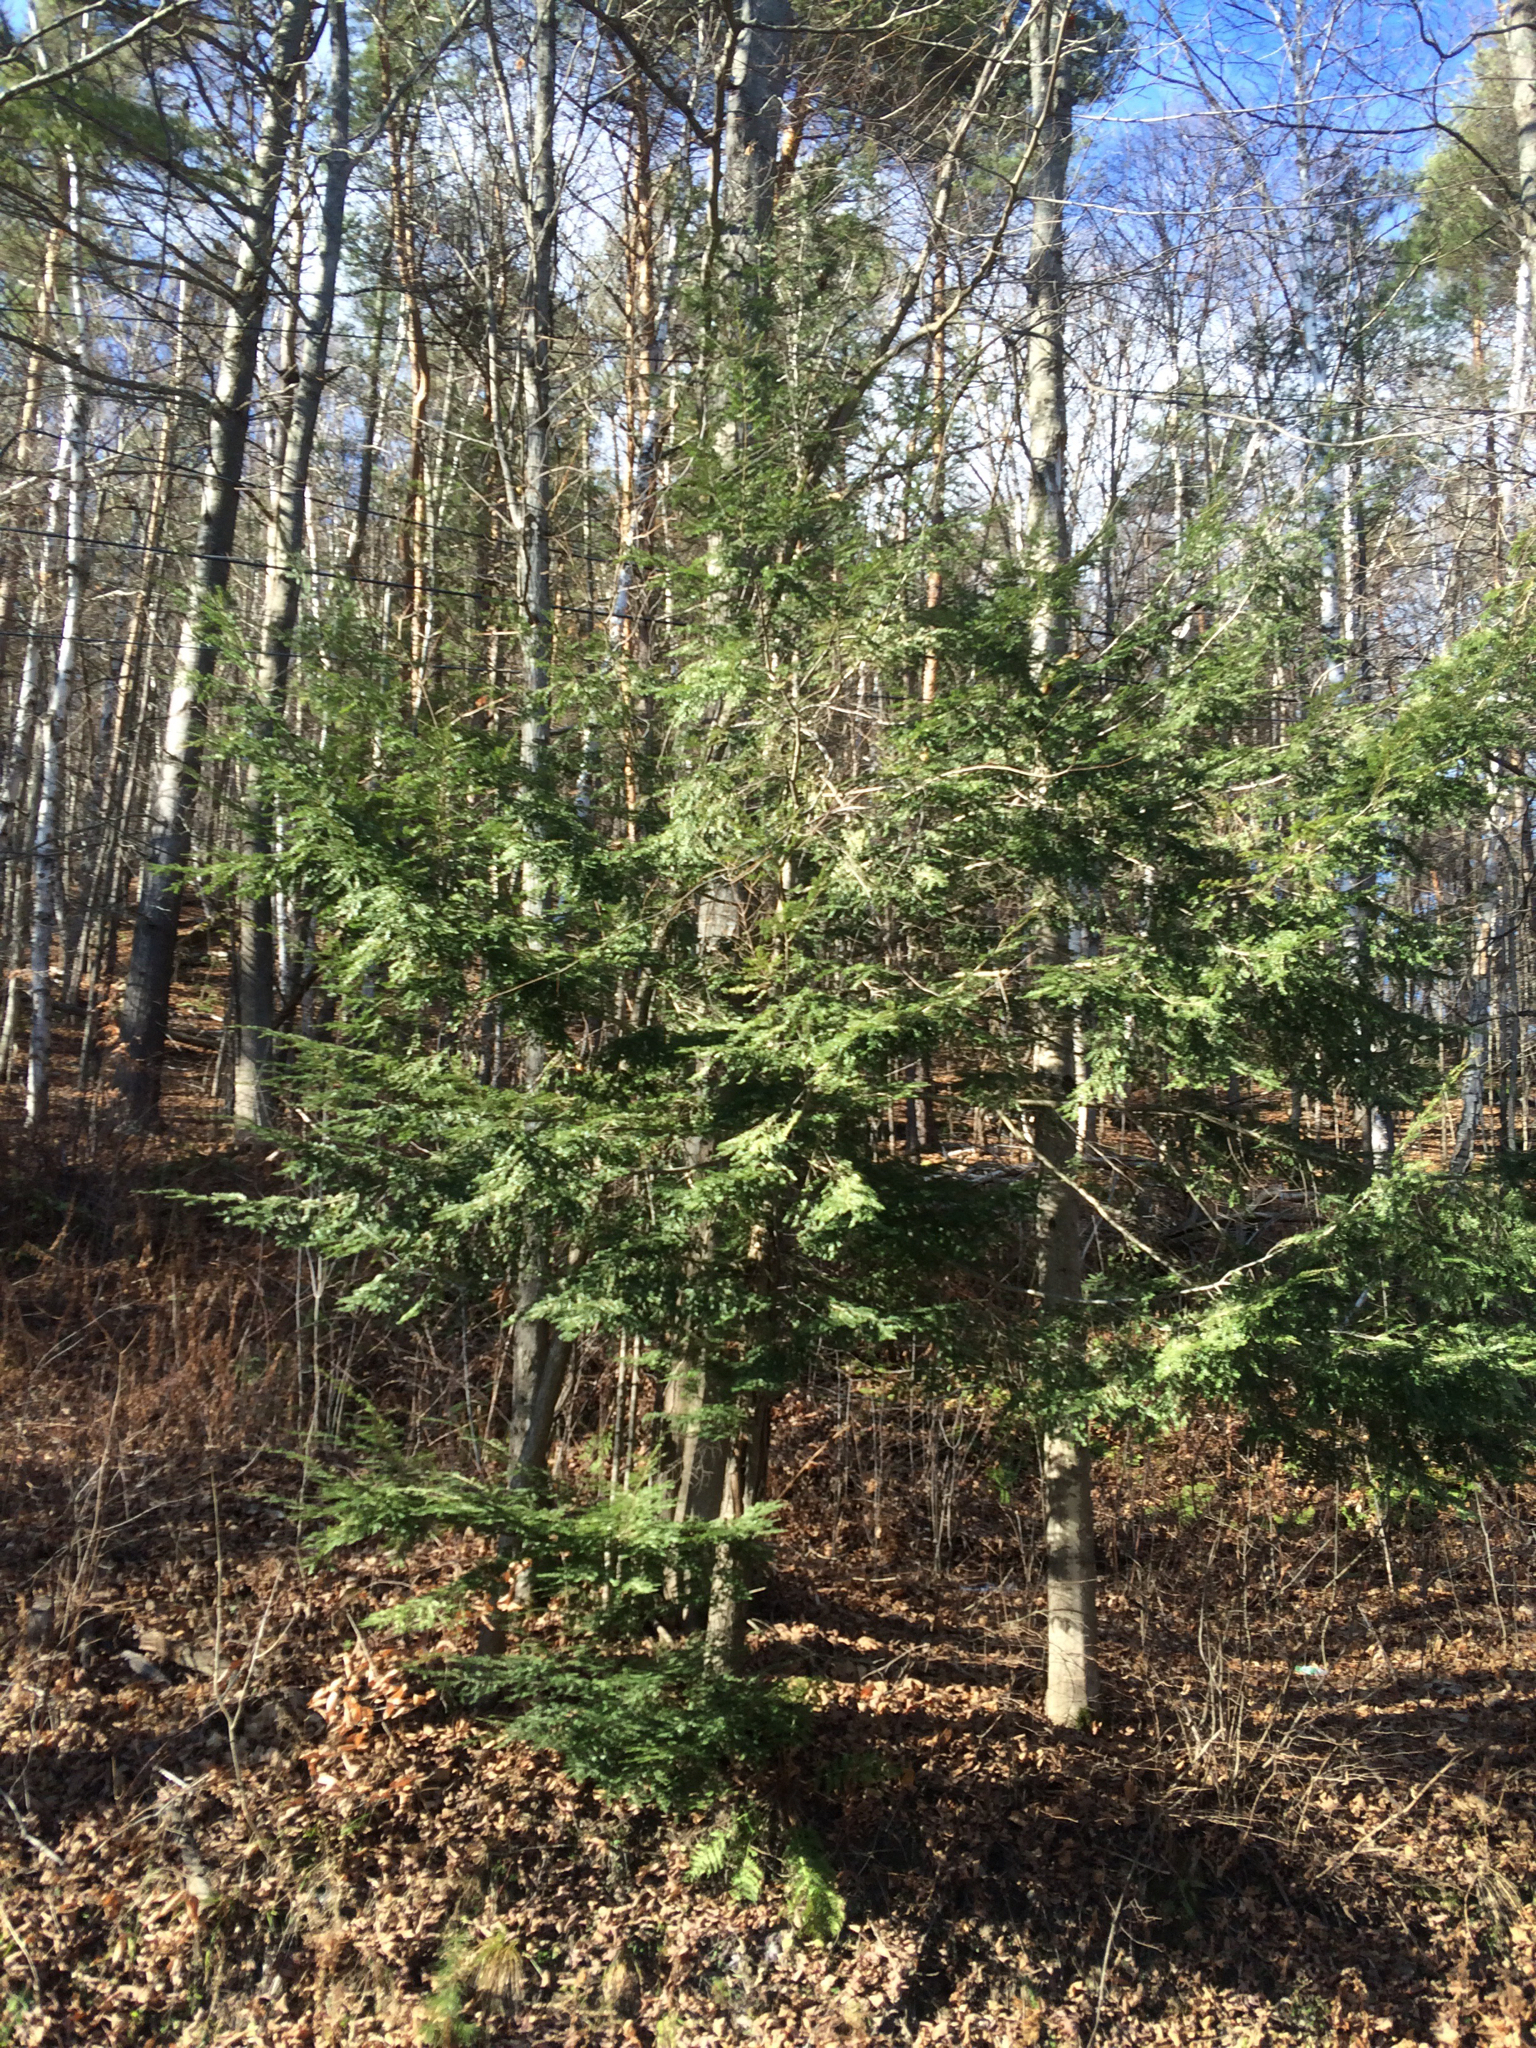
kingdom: Plantae
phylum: Tracheophyta
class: Pinopsida
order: Pinales
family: Pinaceae
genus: Tsuga
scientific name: Tsuga canadensis
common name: Eastern hemlock
